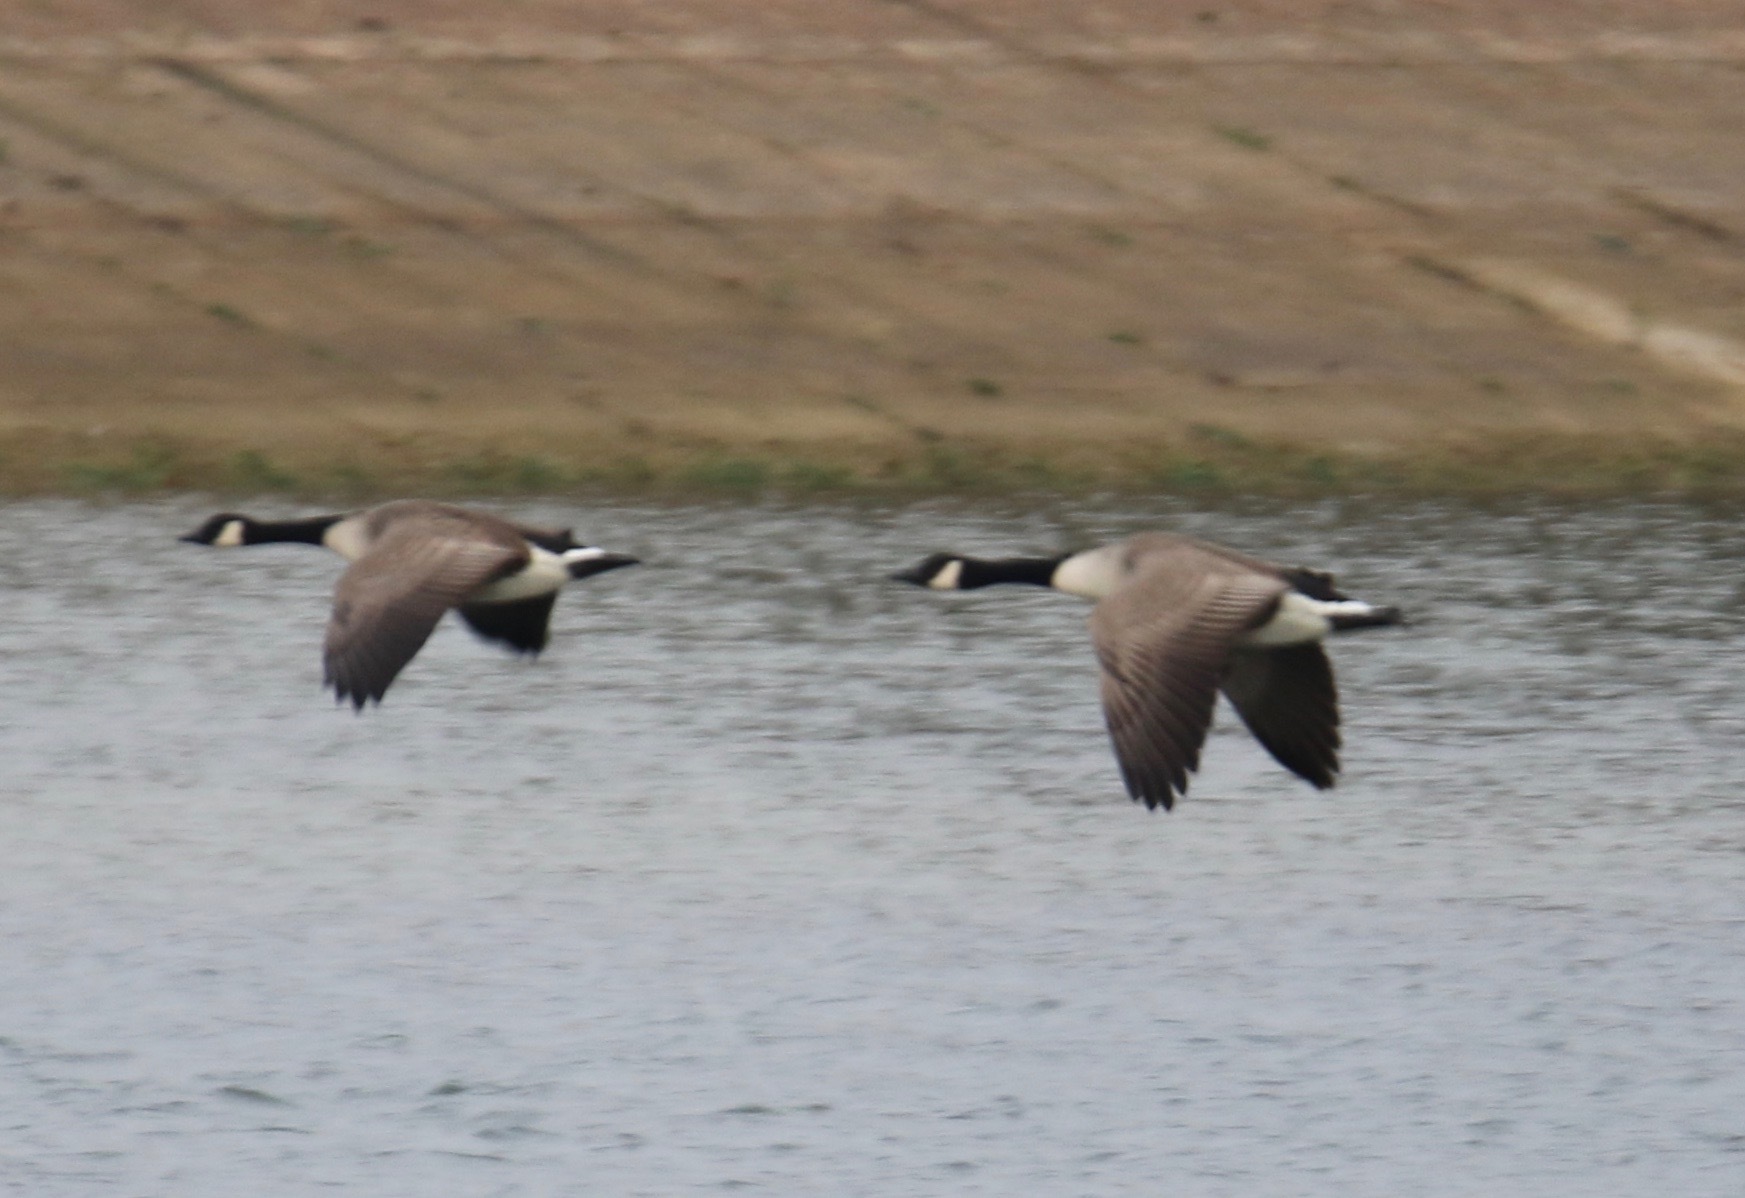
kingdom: Animalia
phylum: Chordata
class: Aves
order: Anseriformes
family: Anatidae
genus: Branta
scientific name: Branta canadensis
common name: Canada goose
